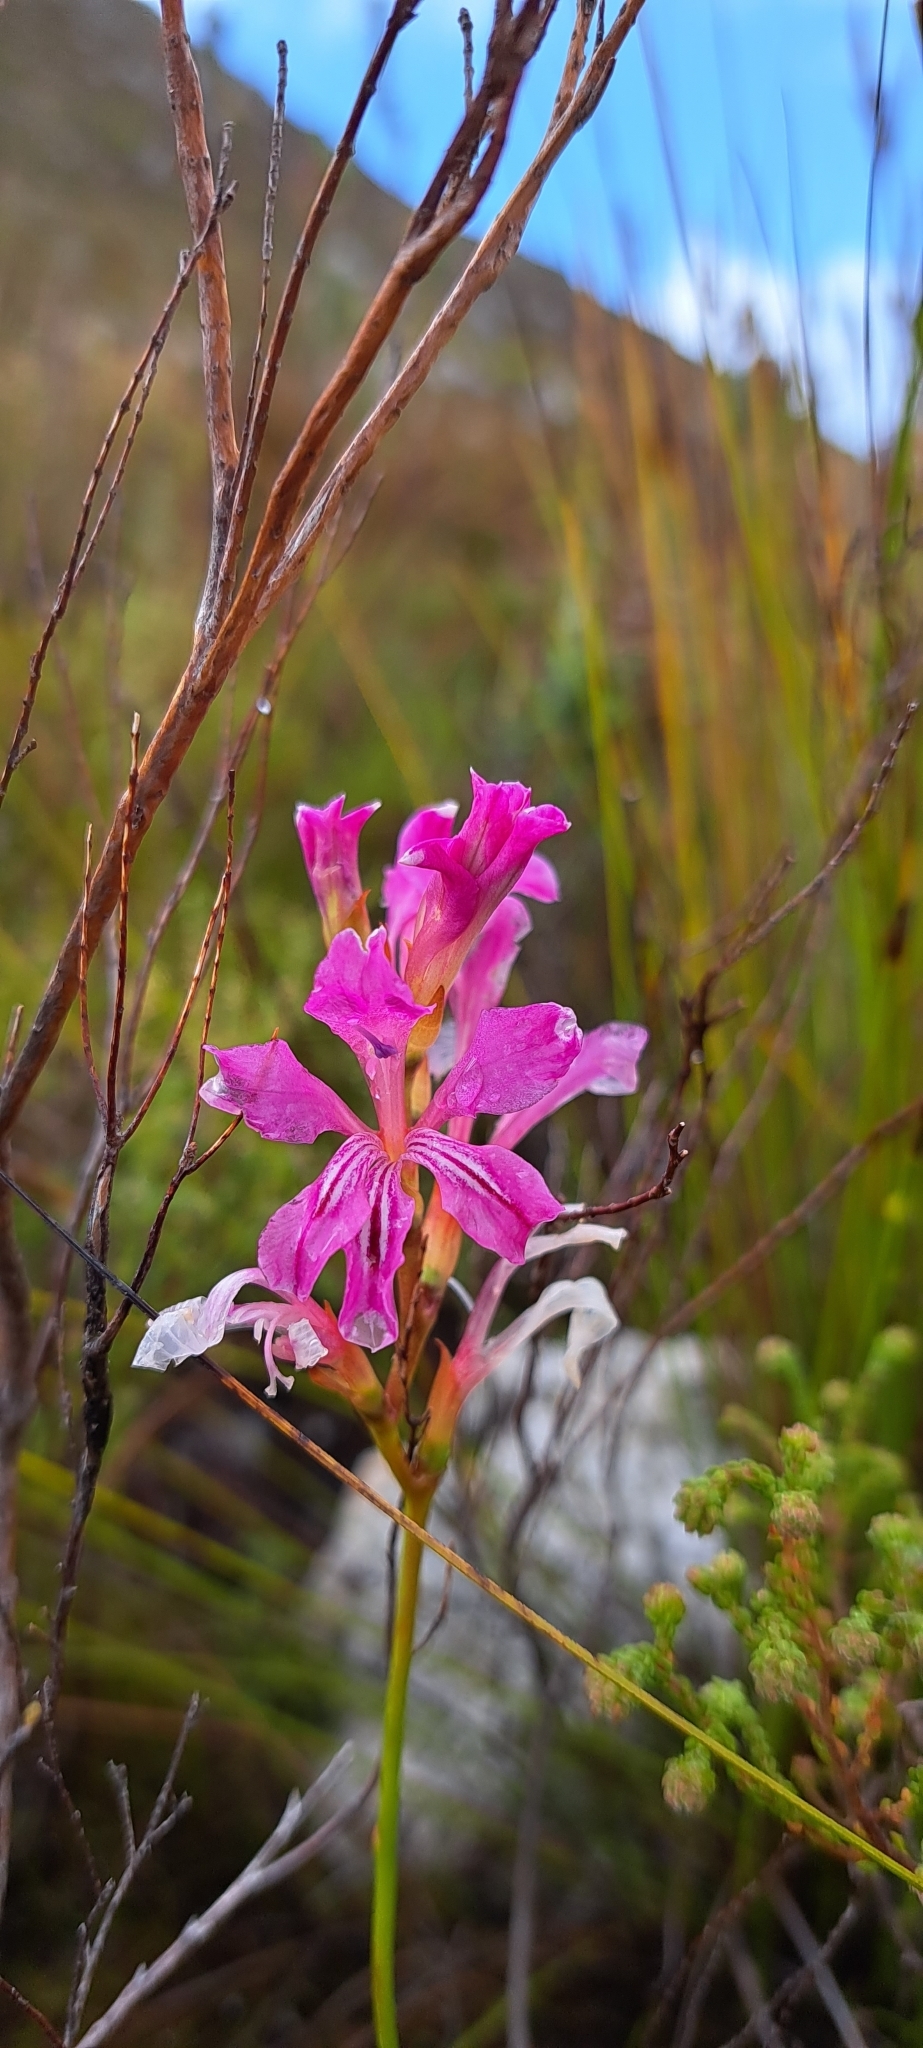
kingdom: Plantae
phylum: Tracheophyta
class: Liliopsida
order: Asparagales
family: Iridaceae
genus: Tritoniopsis
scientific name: Tritoniopsis lata
